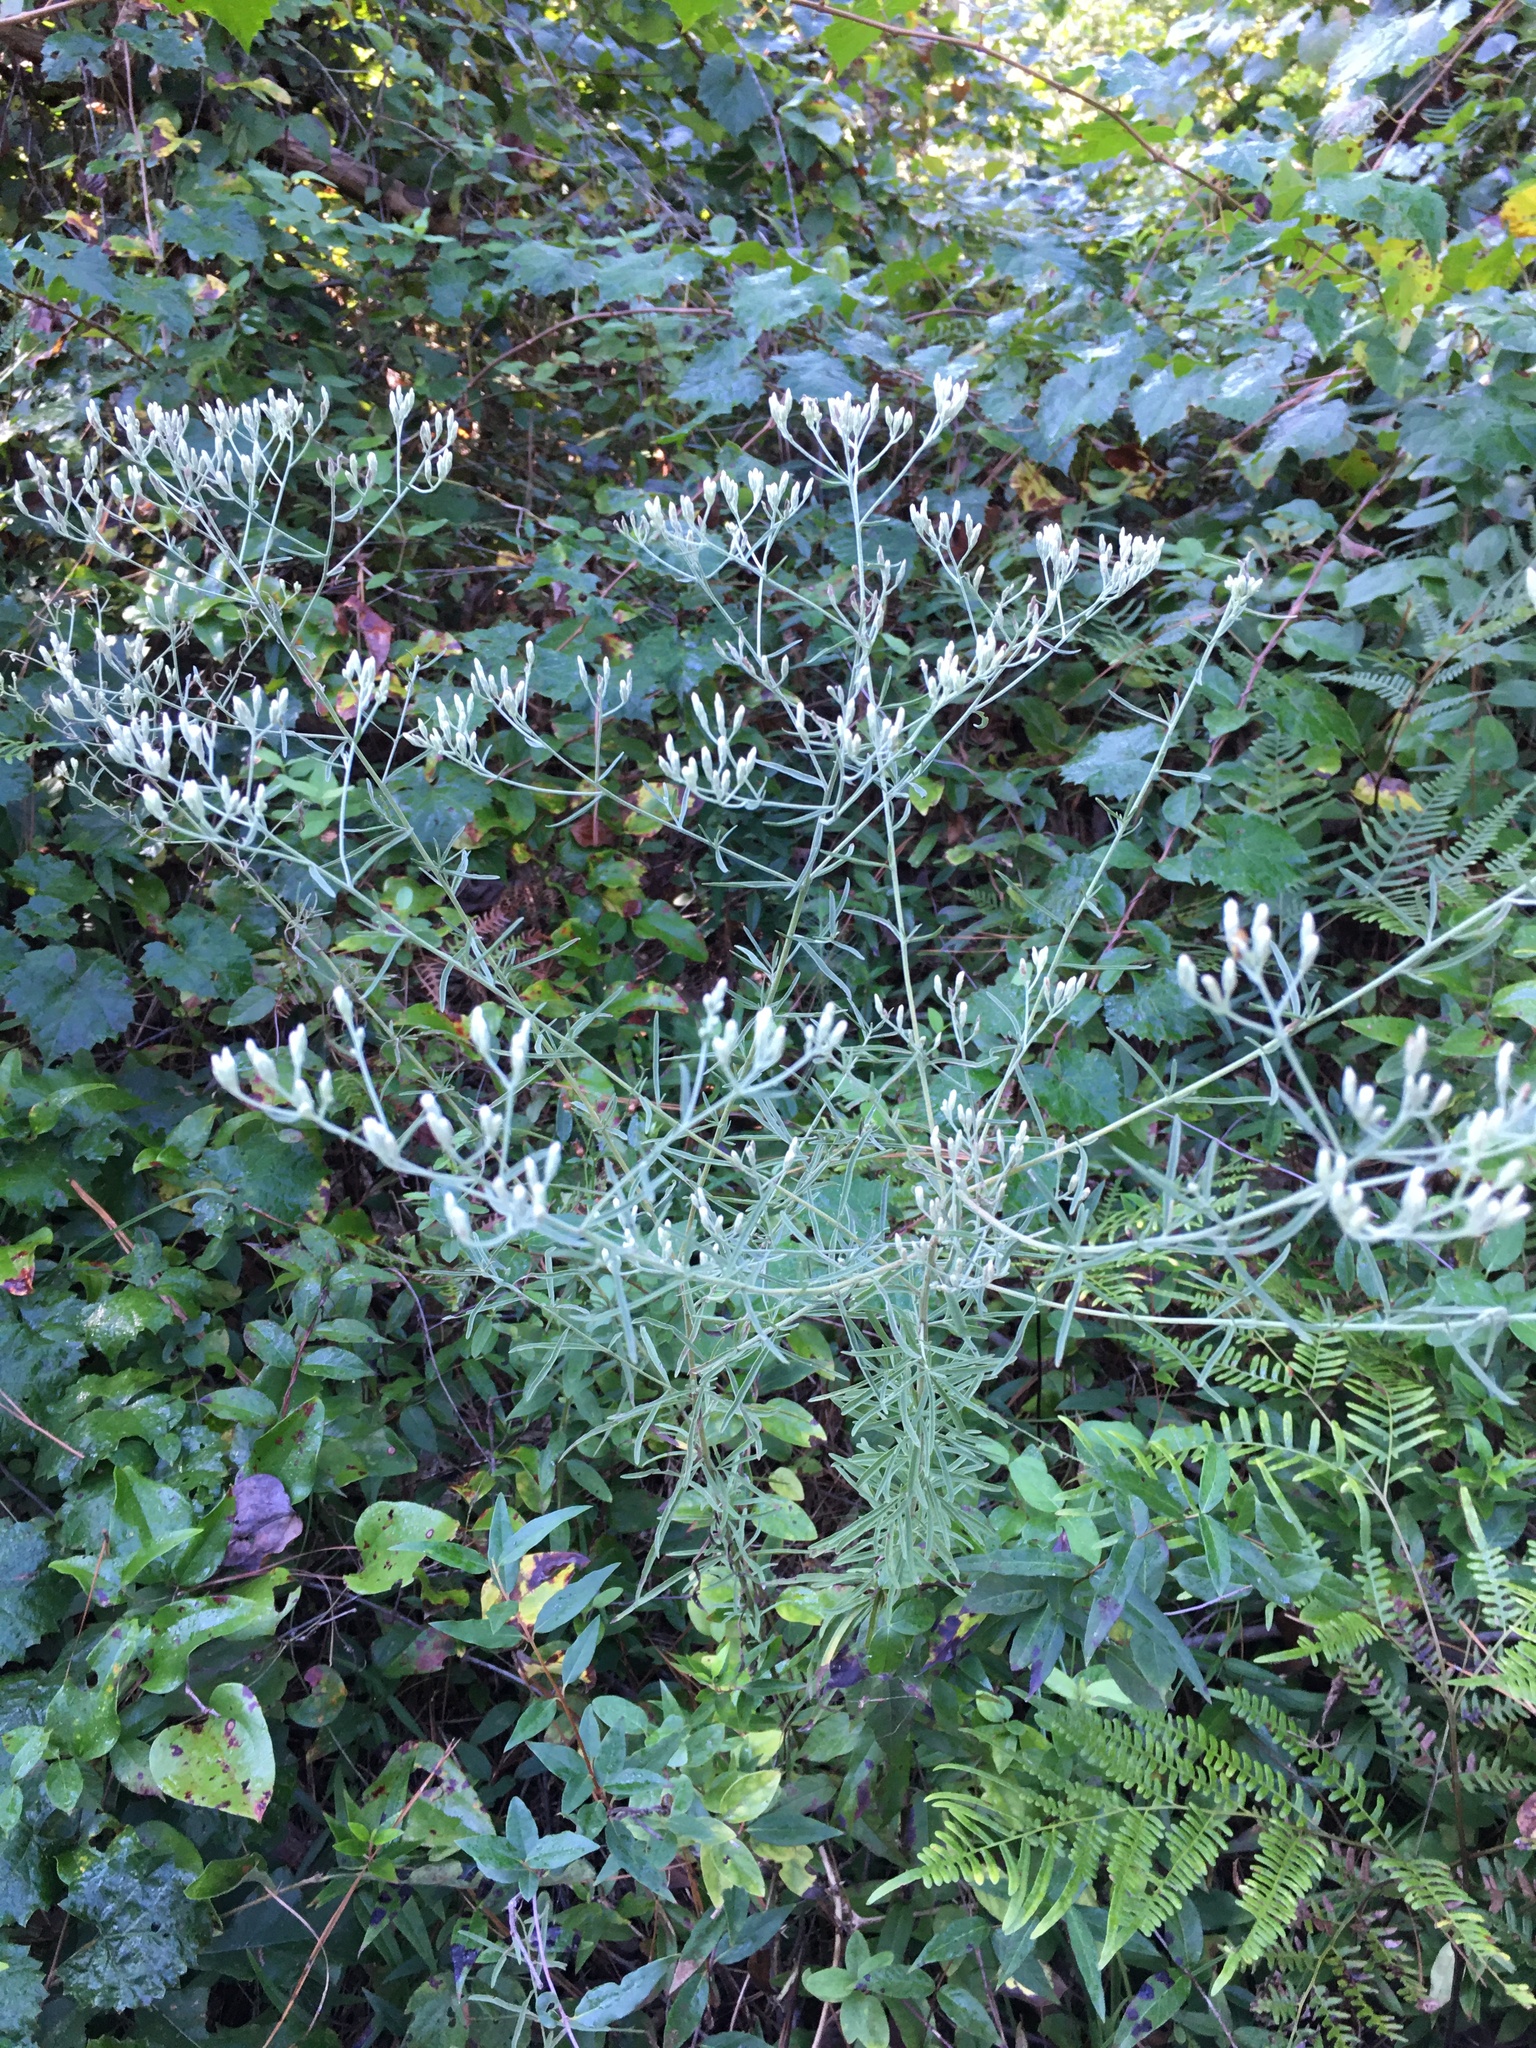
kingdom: Plantae
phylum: Tracheophyta
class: Magnoliopsida
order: Asterales
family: Asteraceae
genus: Eupatorium
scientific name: Eupatorium hyssopifolium
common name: Hyssop-leaf thoroughwort
